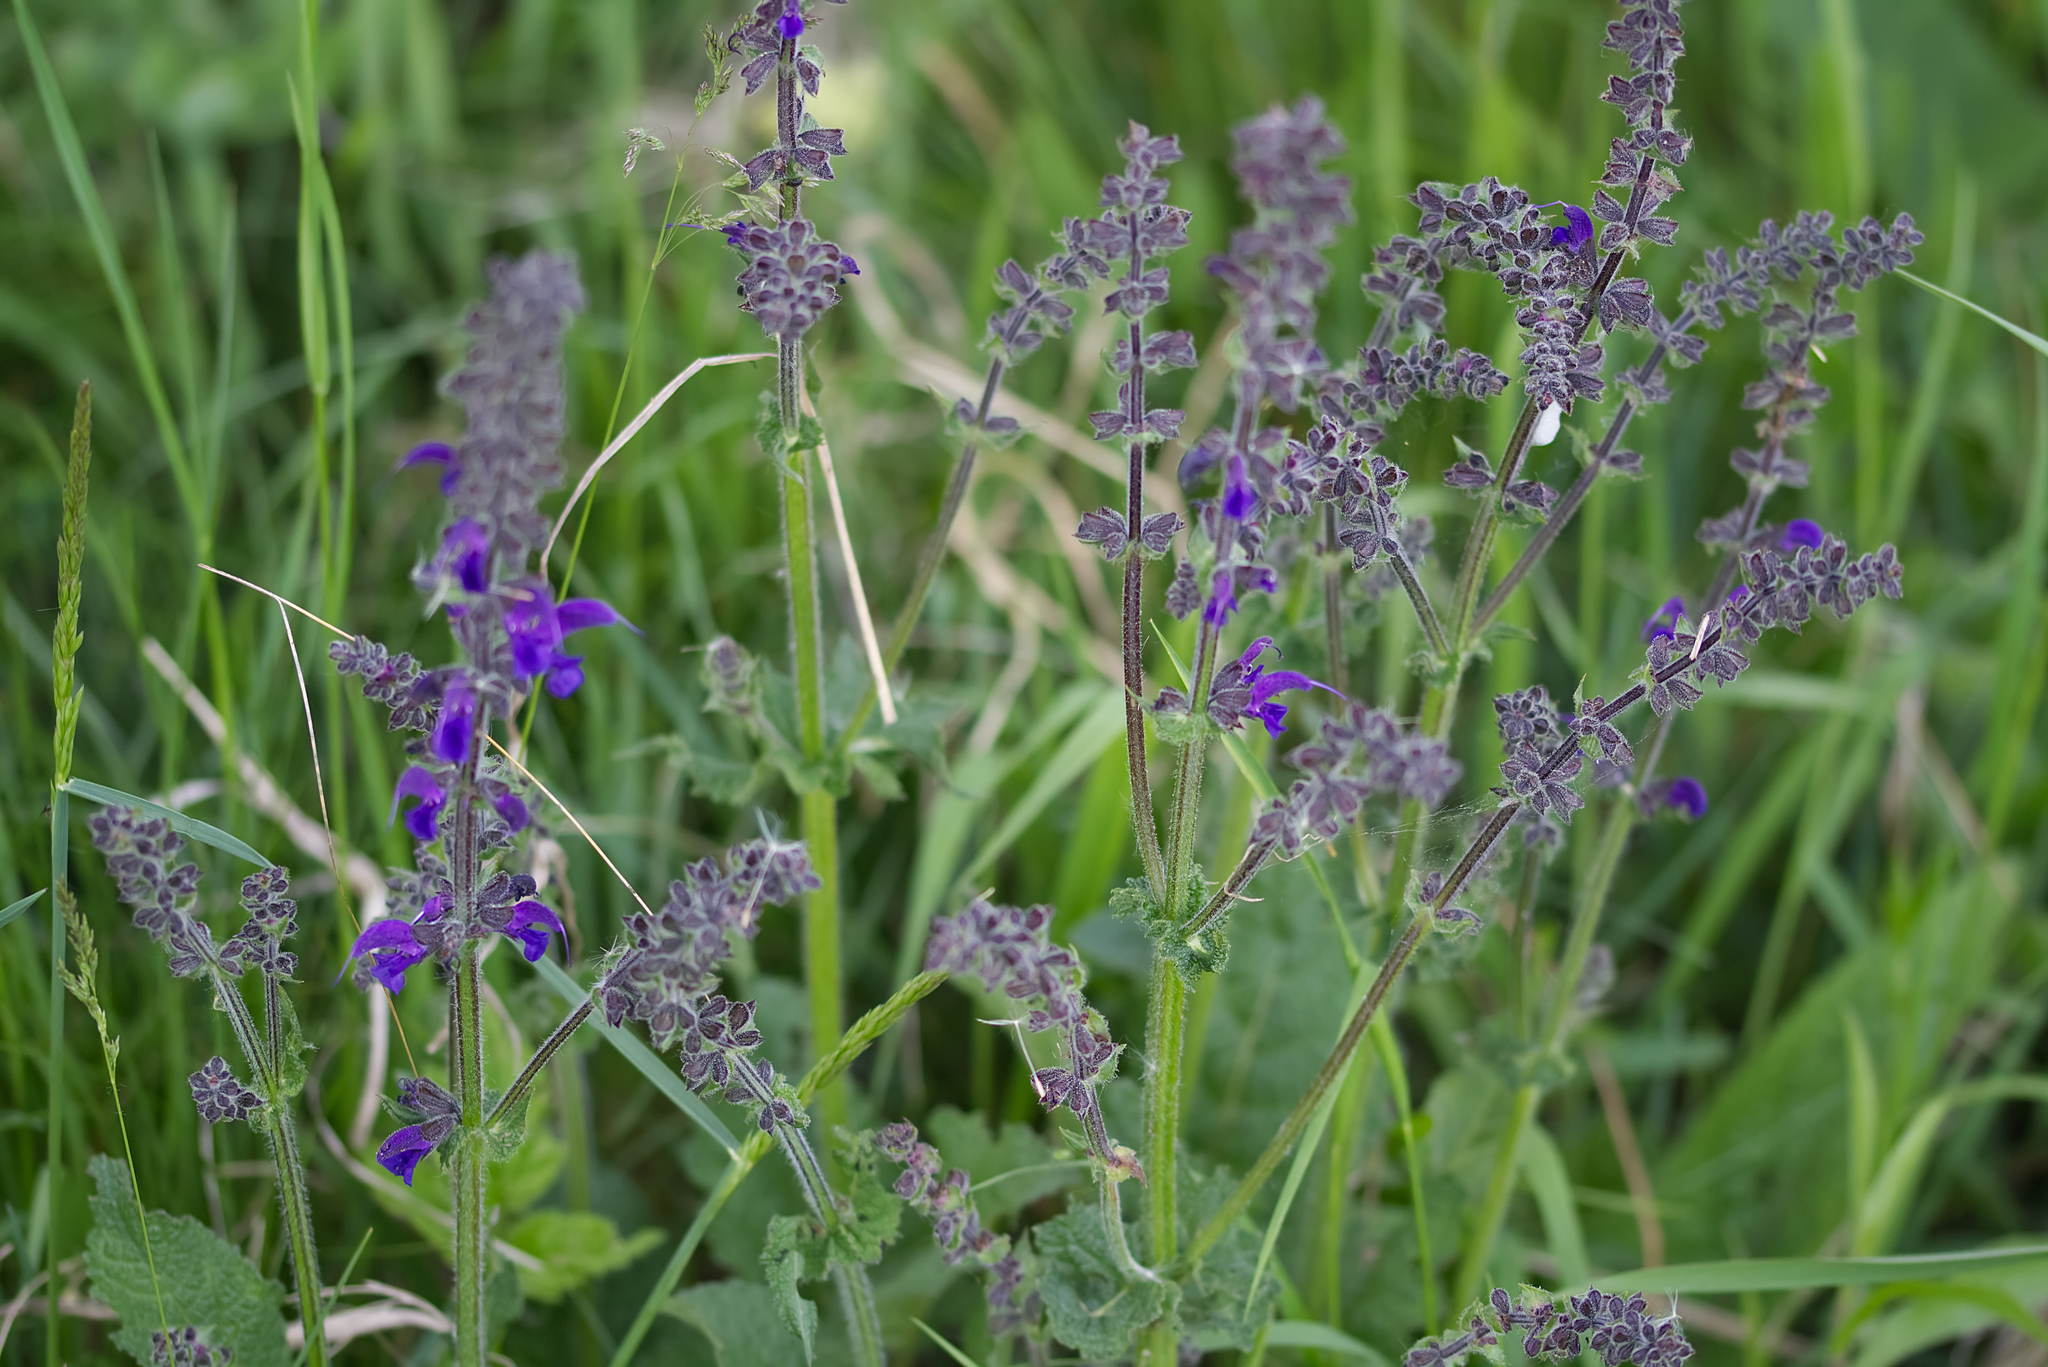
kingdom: Plantae
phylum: Tracheophyta
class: Magnoliopsida
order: Lamiales
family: Lamiaceae
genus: Salvia
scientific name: Salvia pratensis
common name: Meadow sage
